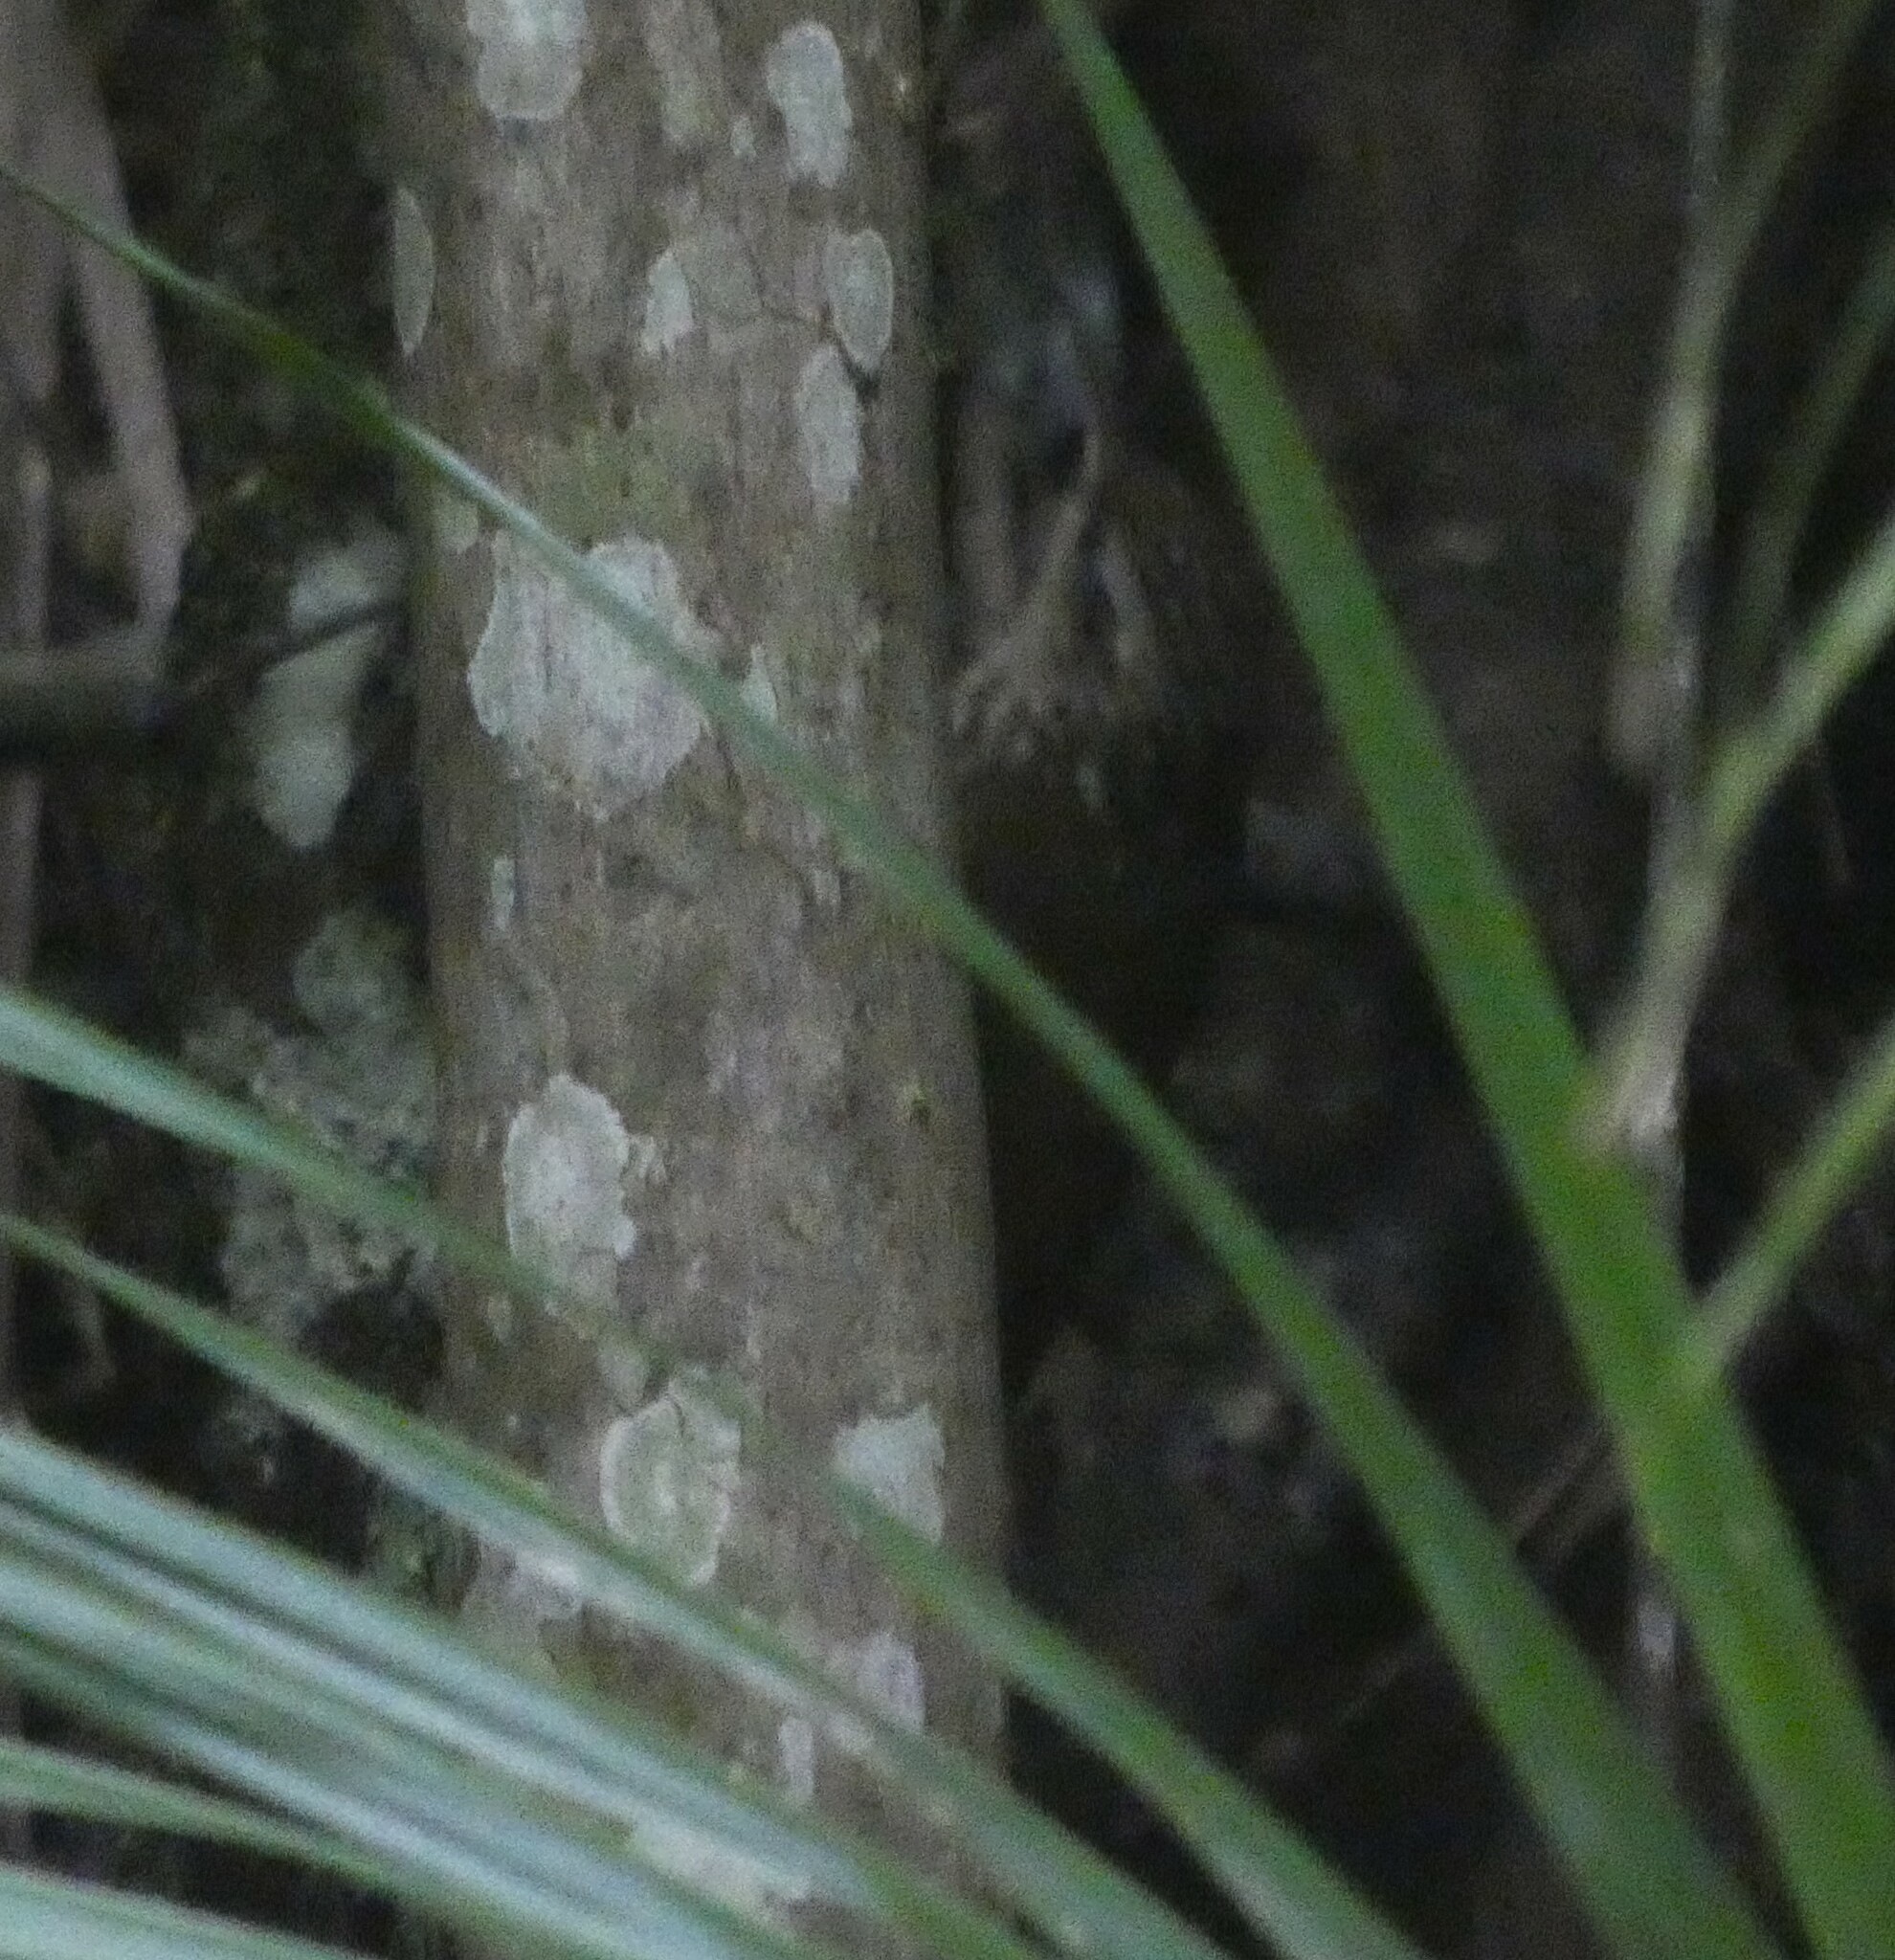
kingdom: Animalia
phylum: Chordata
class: Aves
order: Passeriformes
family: Furnariidae
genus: Xiphorhynchus
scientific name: Xiphorhynchus fuscus
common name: Lesser woodcreeper
